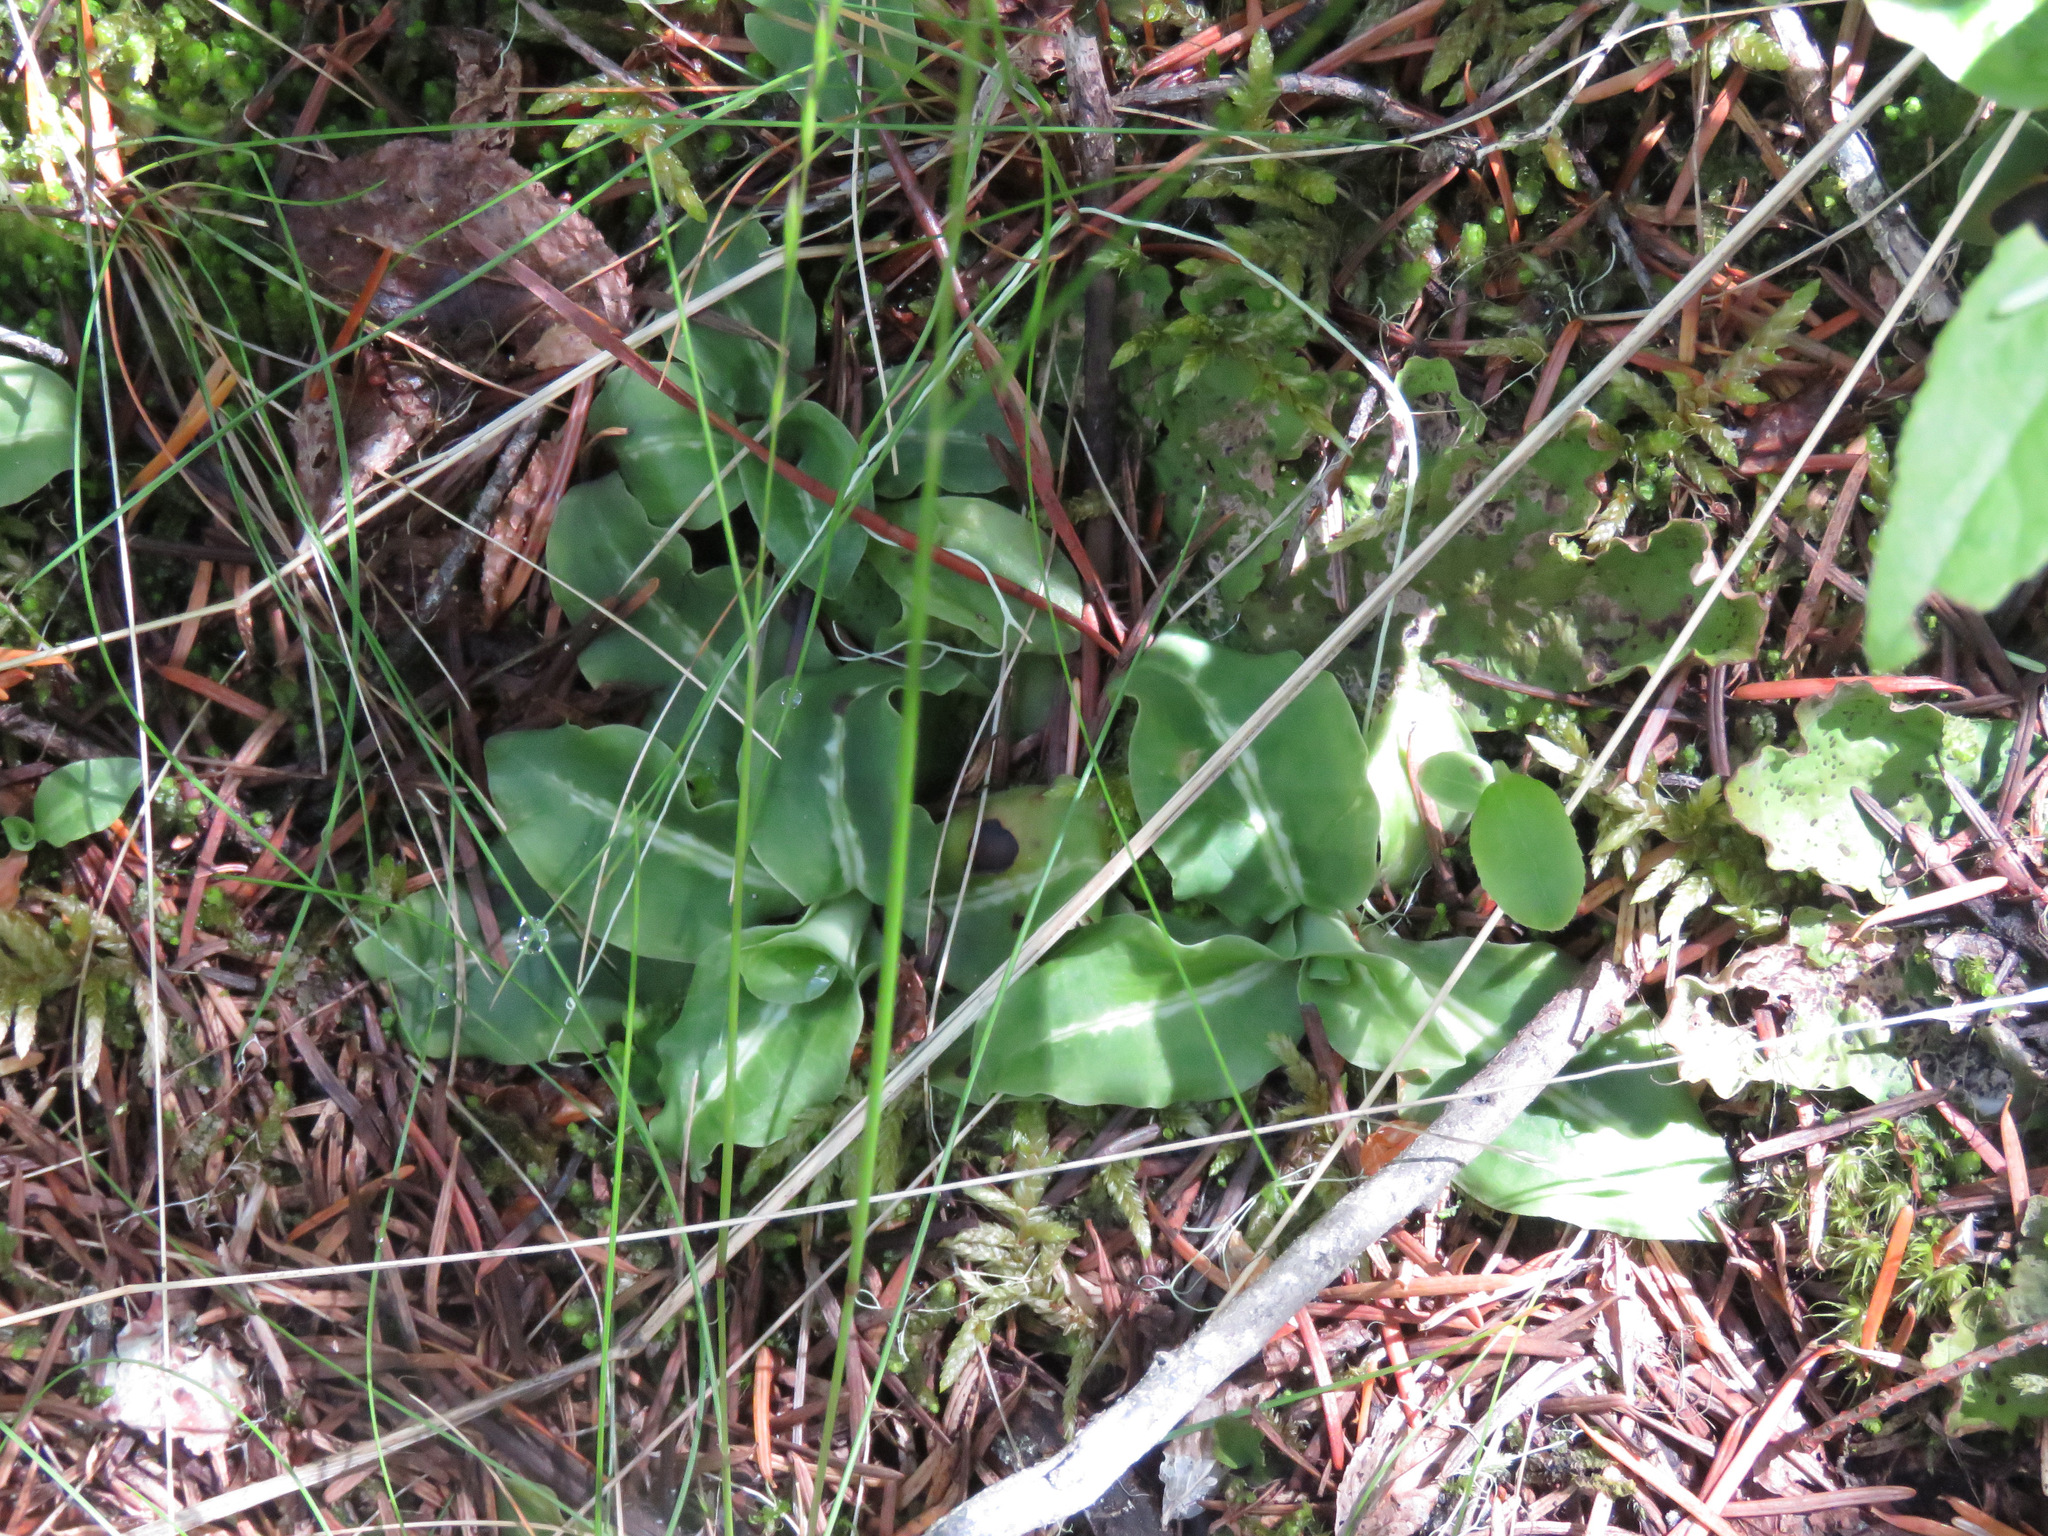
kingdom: Plantae
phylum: Tracheophyta
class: Liliopsida
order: Asparagales
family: Orchidaceae
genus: Goodyera
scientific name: Goodyera oblongifolia
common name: Giant rattlesnake-plantain
